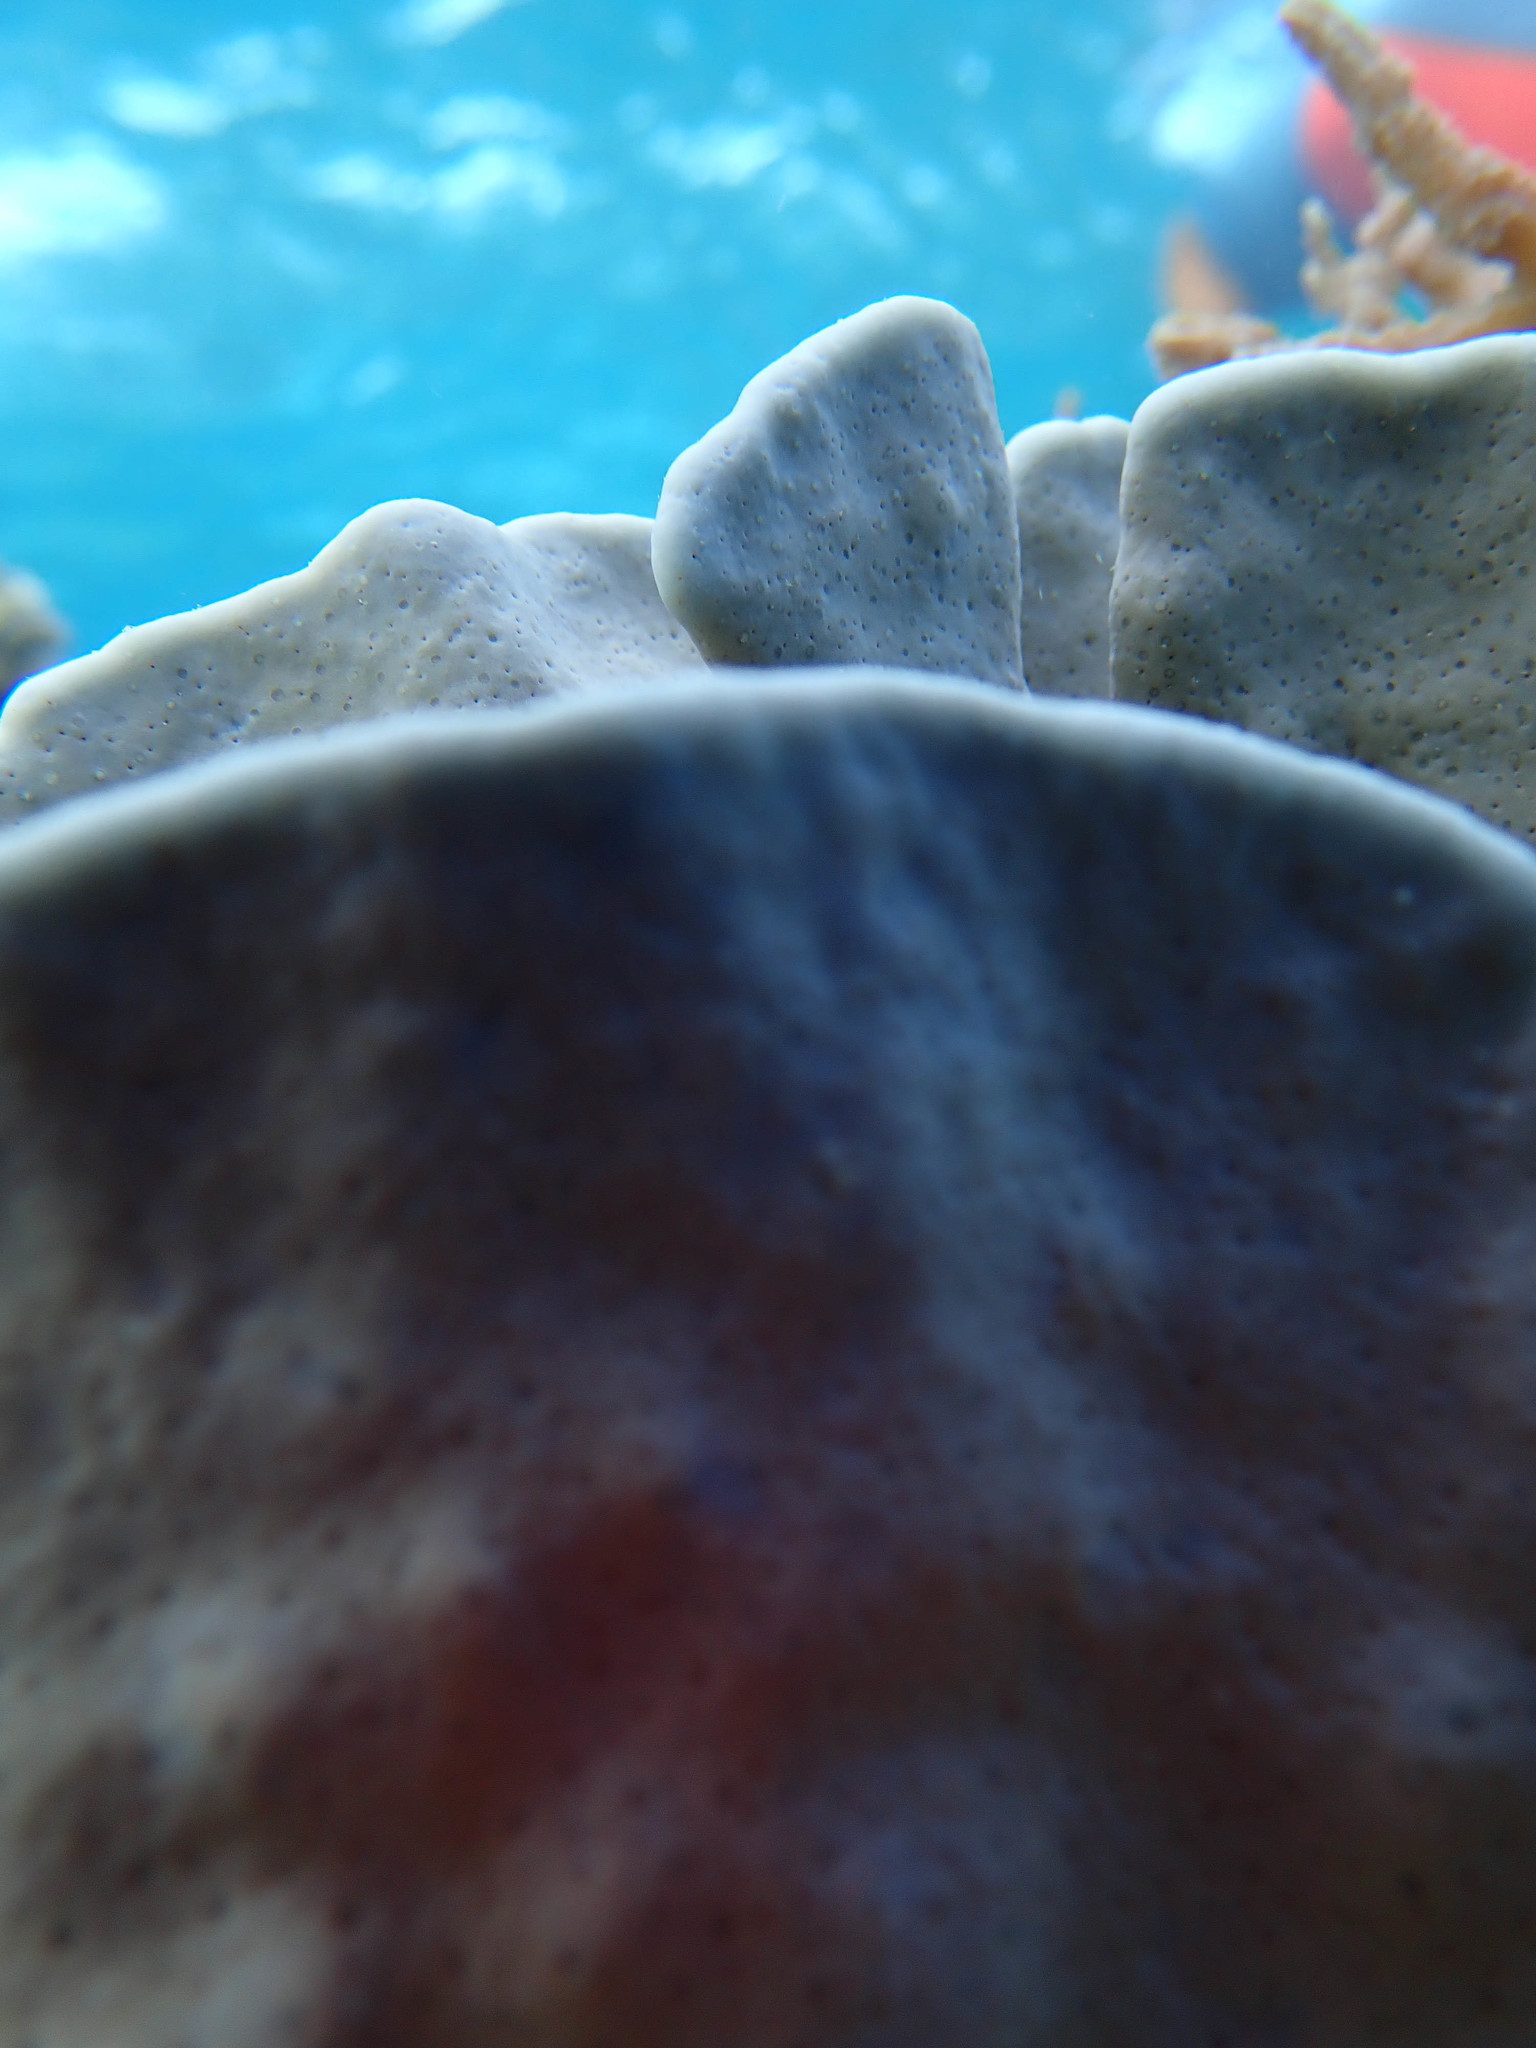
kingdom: Animalia
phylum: Cnidaria
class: Anthozoa
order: Scleralcyonacea
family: Helioporidae
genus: Heliopora
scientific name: Heliopora coerulea
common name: Blue coral
